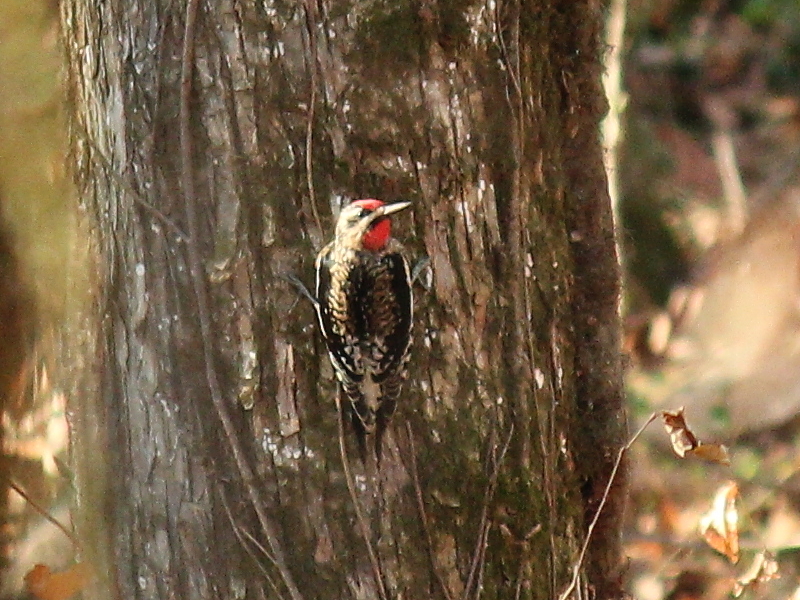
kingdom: Animalia
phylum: Chordata
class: Aves
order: Piciformes
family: Picidae
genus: Sphyrapicus
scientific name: Sphyrapicus varius
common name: Yellow-bellied sapsucker
